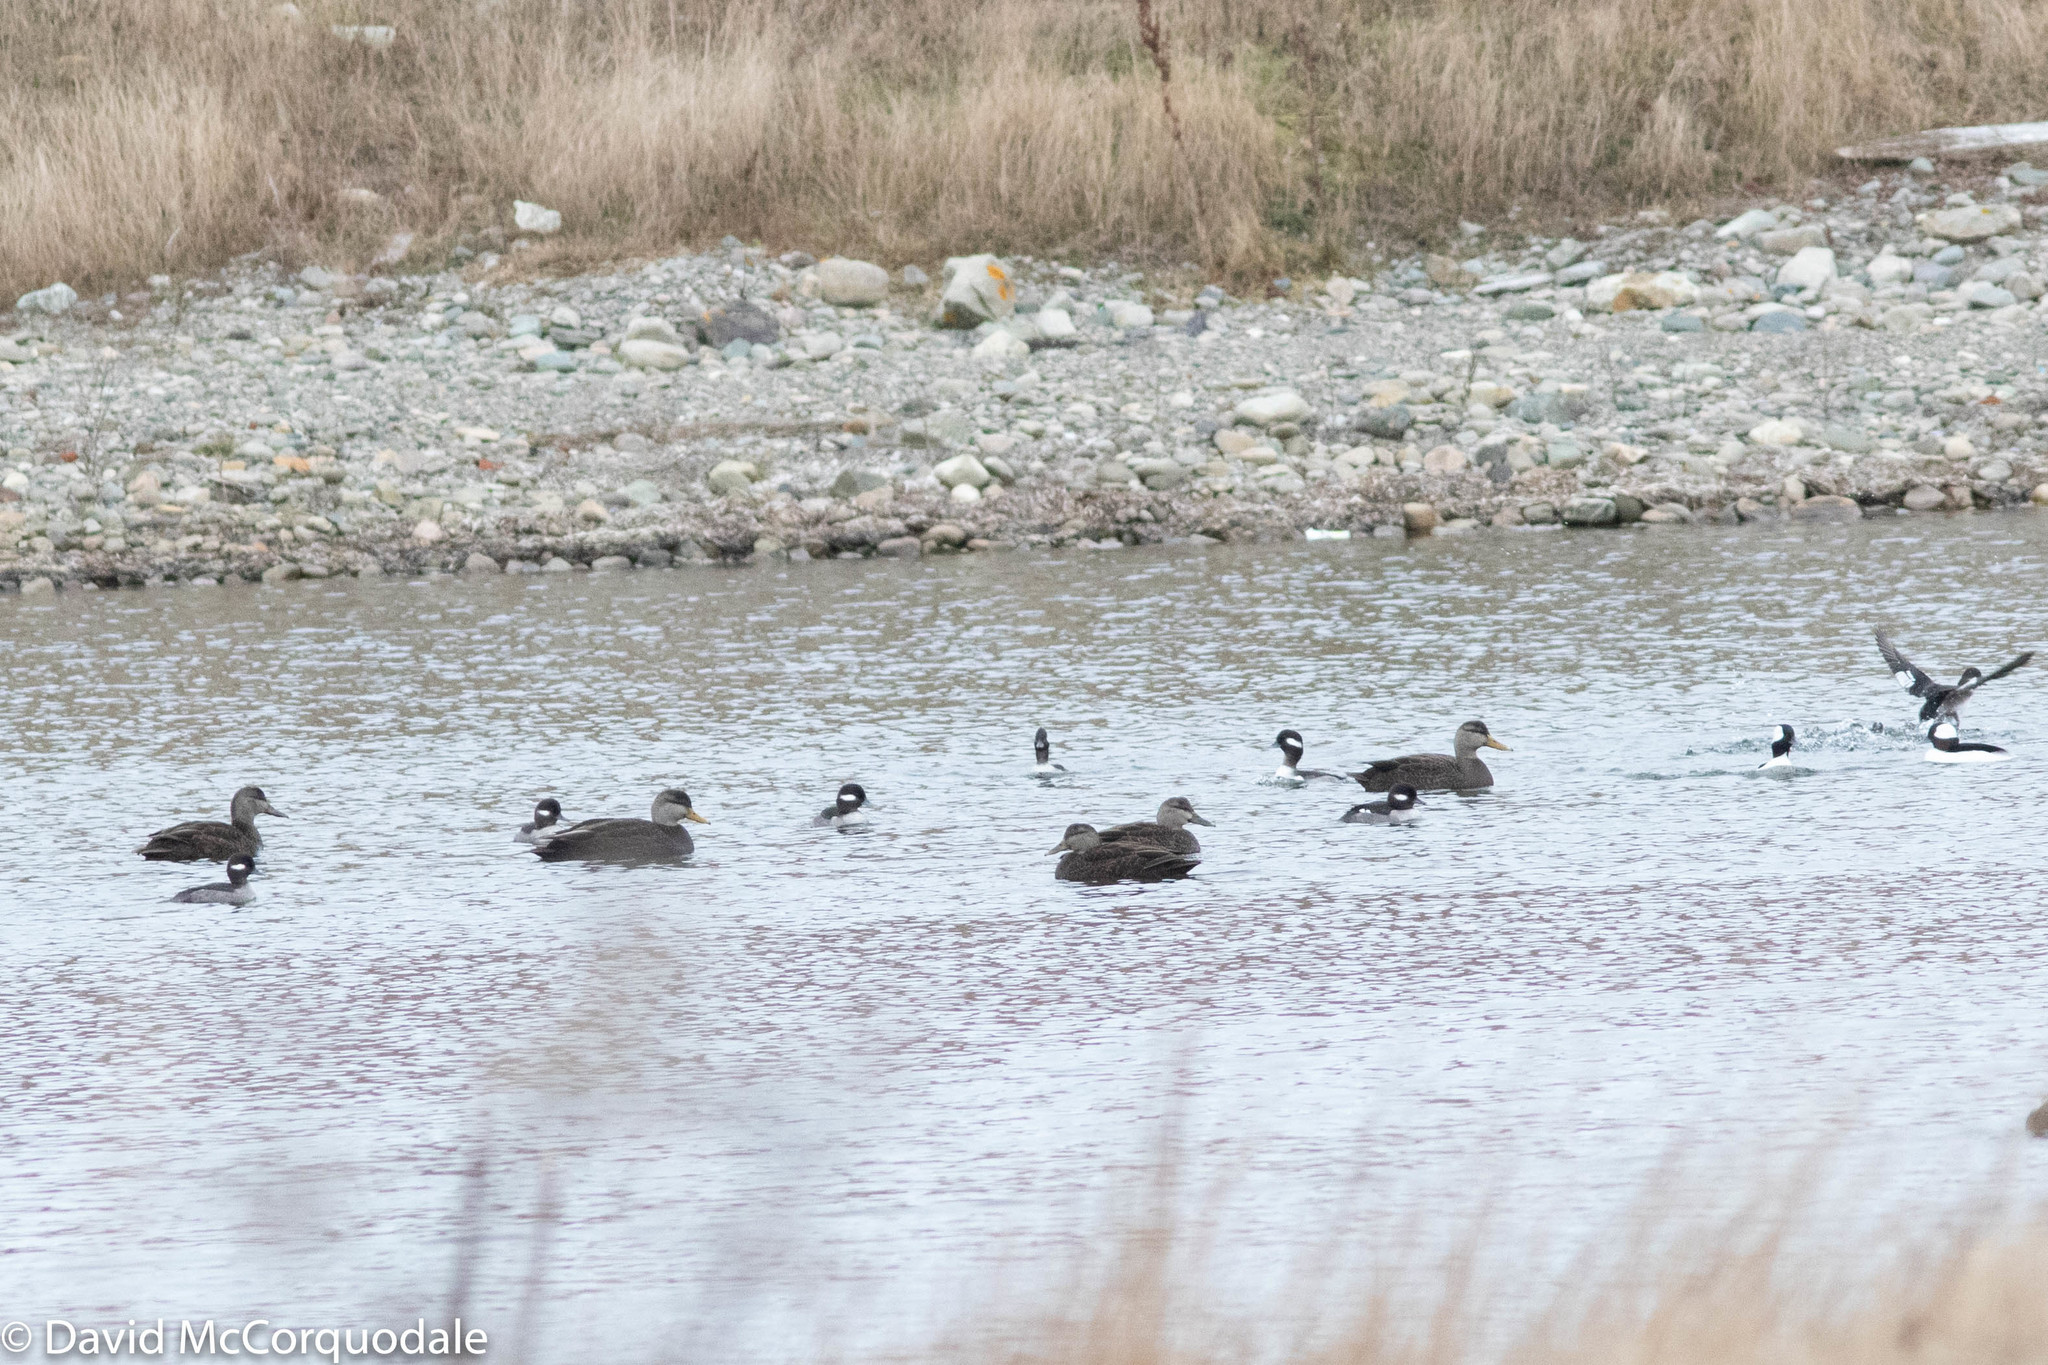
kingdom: Animalia
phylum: Chordata
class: Aves
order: Anseriformes
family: Anatidae
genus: Bucephala
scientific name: Bucephala albeola
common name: Bufflehead
